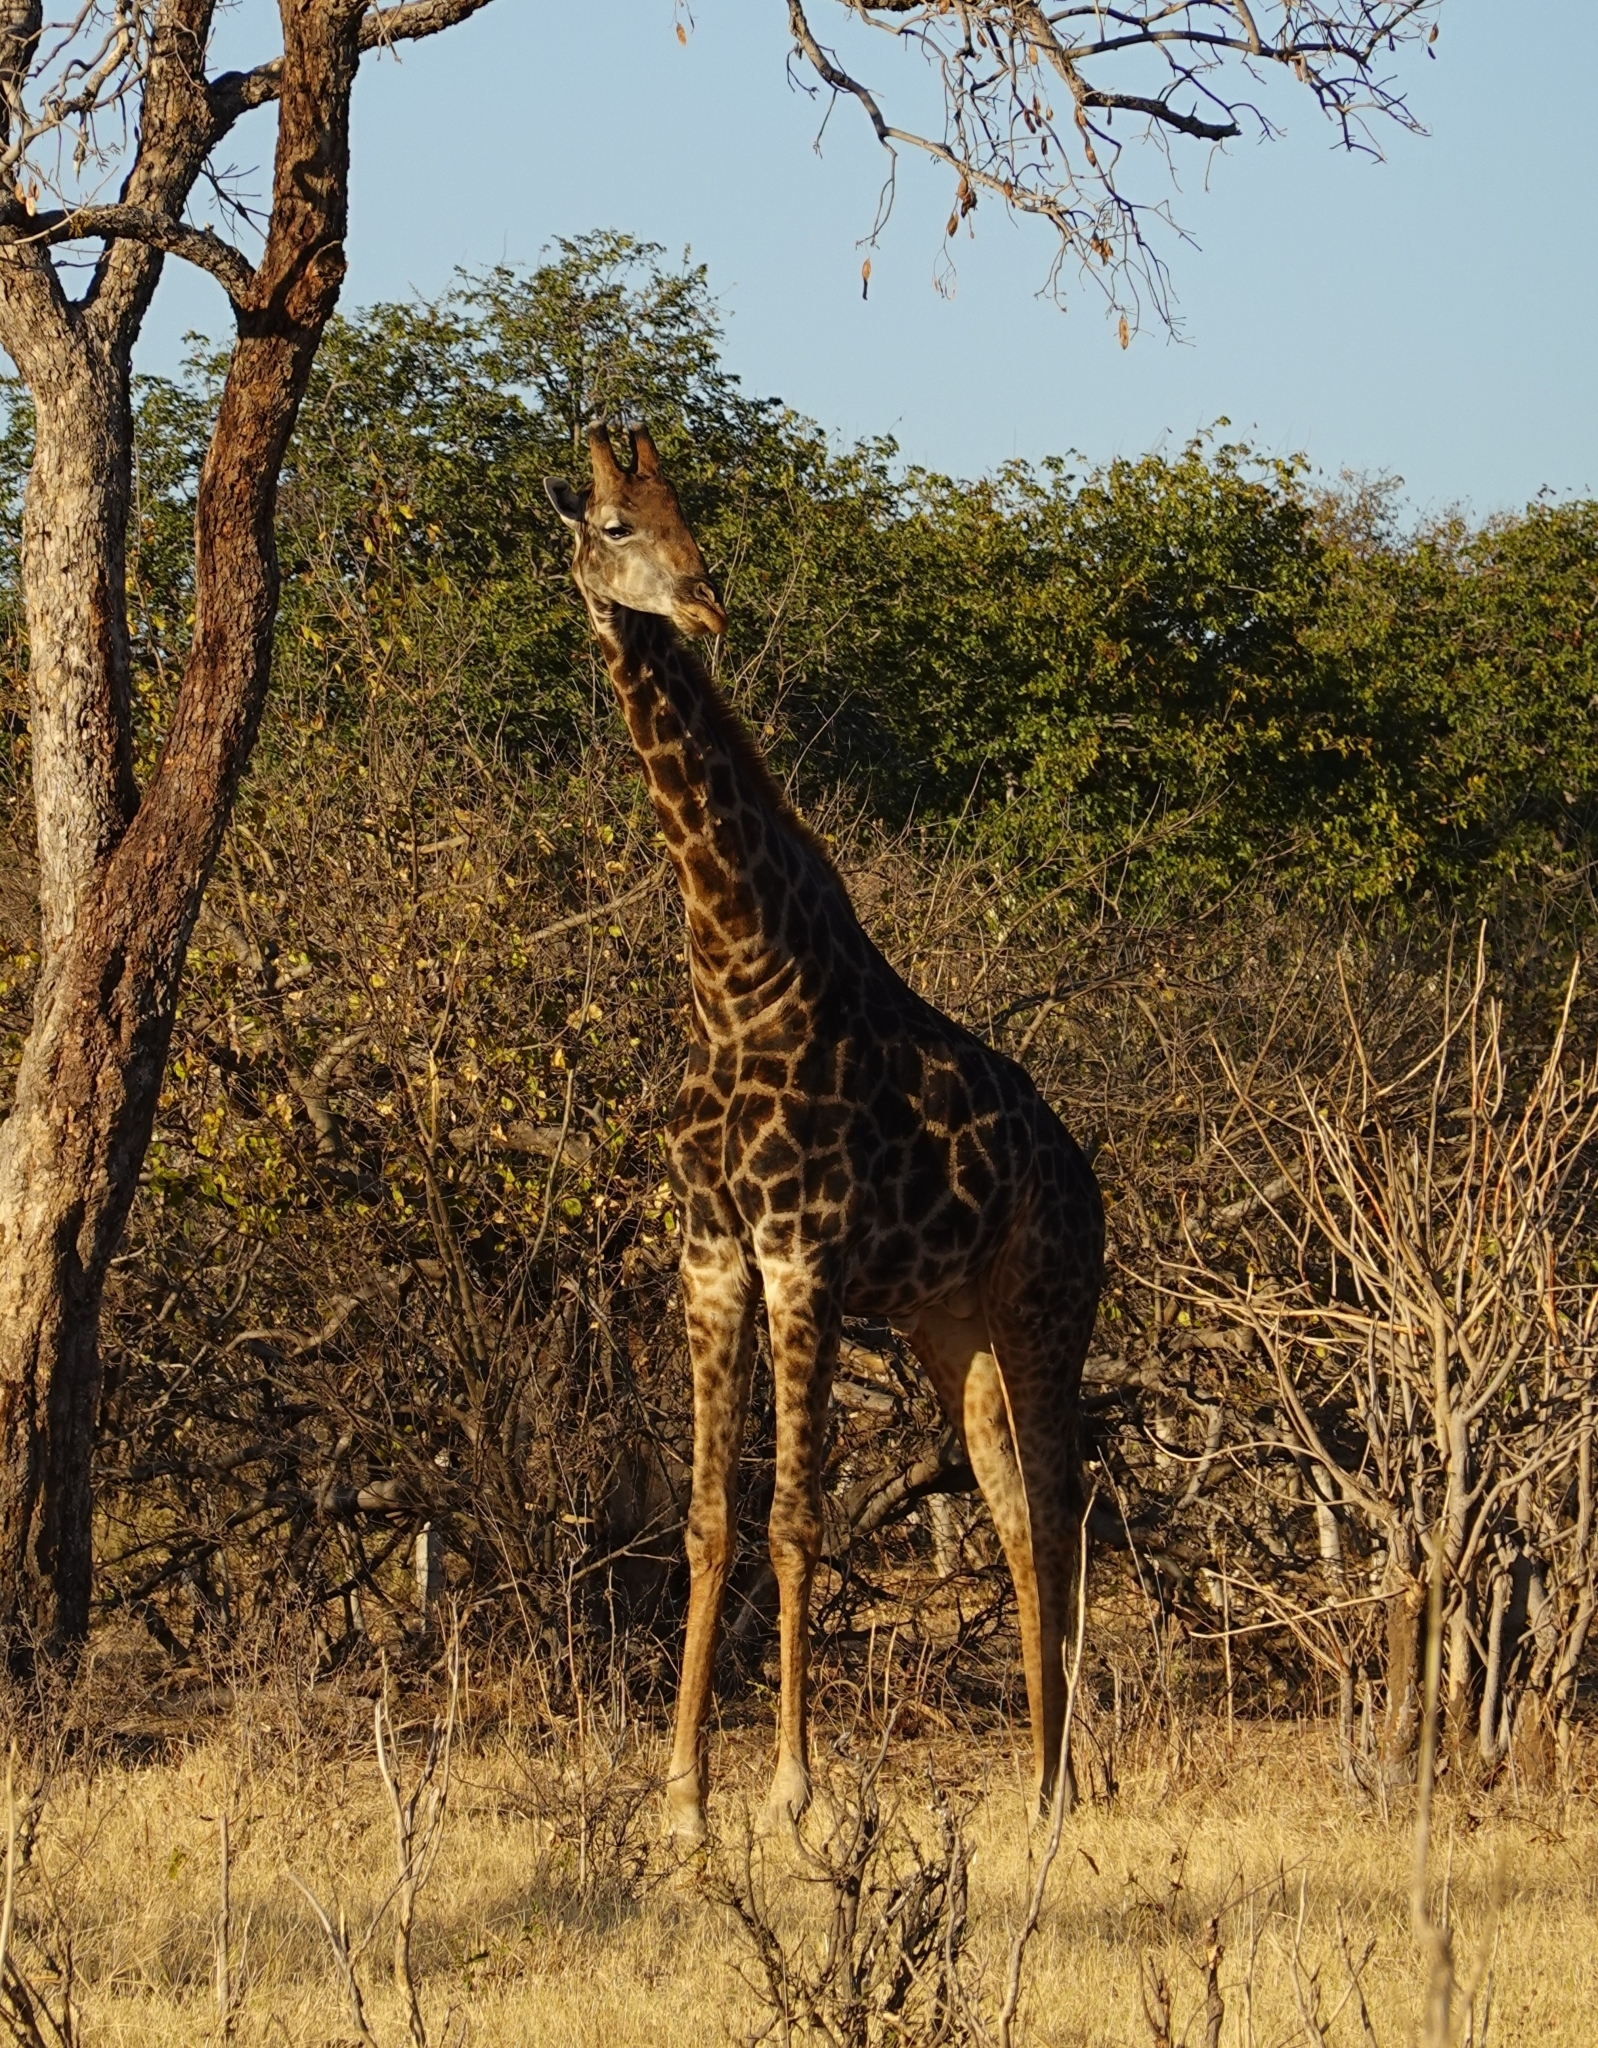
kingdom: Animalia
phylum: Chordata
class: Mammalia
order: Artiodactyla
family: Giraffidae
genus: Giraffa
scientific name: Giraffa giraffa
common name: Southern giraffe
